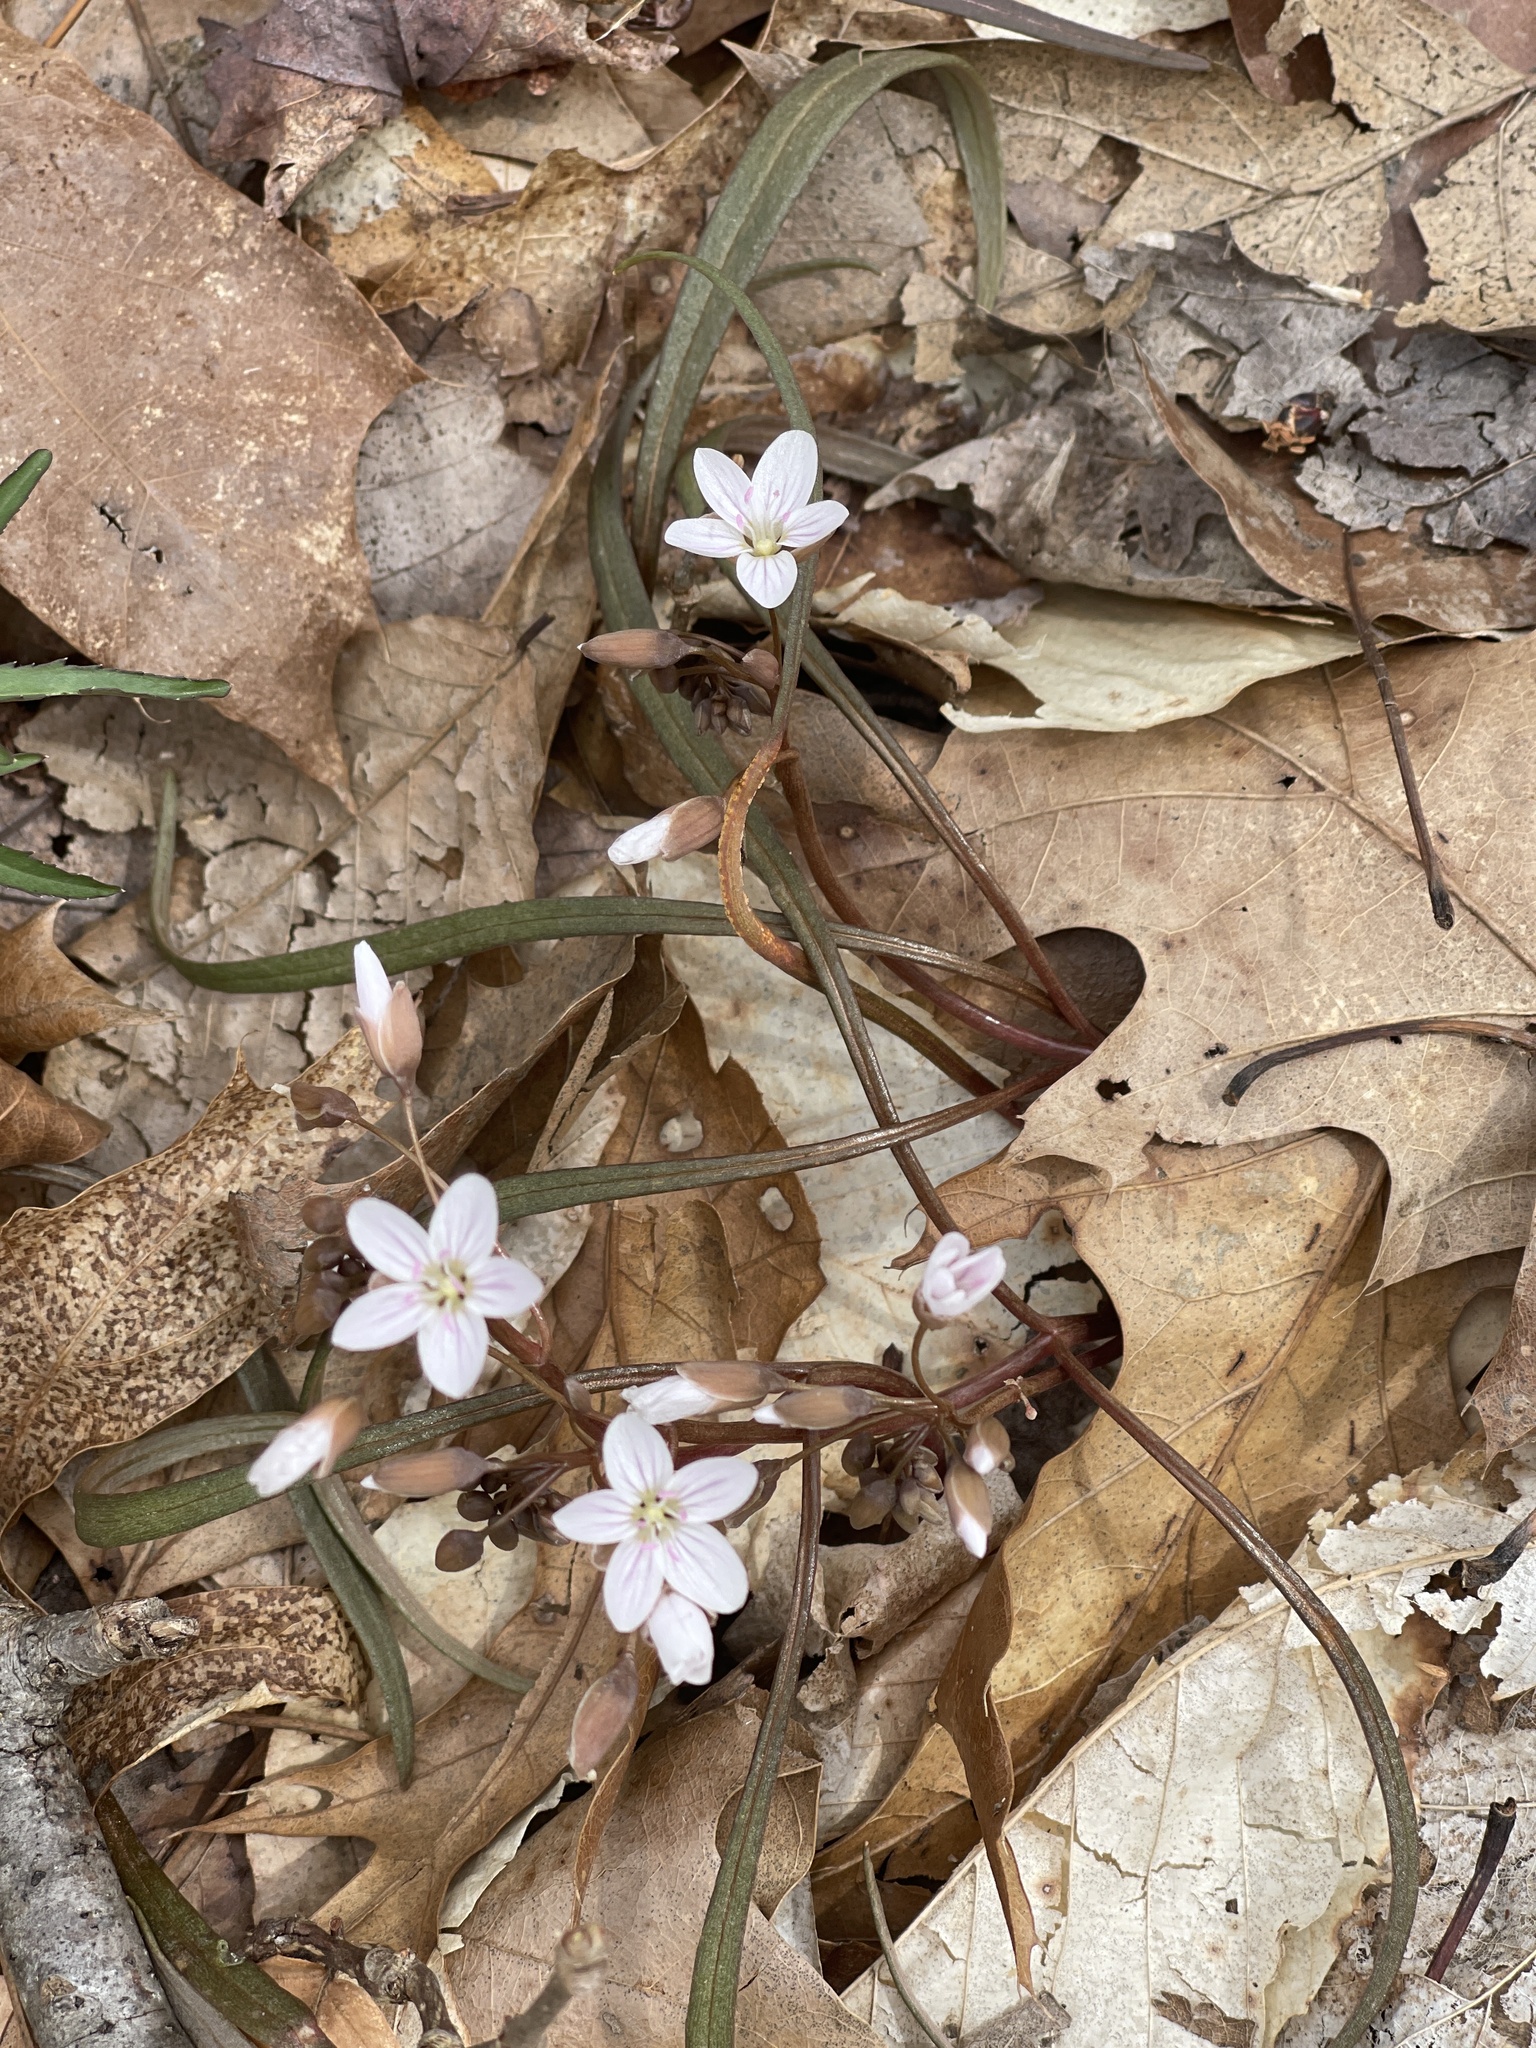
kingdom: Plantae
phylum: Tracheophyta
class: Magnoliopsida
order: Caryophyllales
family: Montiaceae
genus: Claytonia
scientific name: Claytonia virginica
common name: Virginia springbeauty
